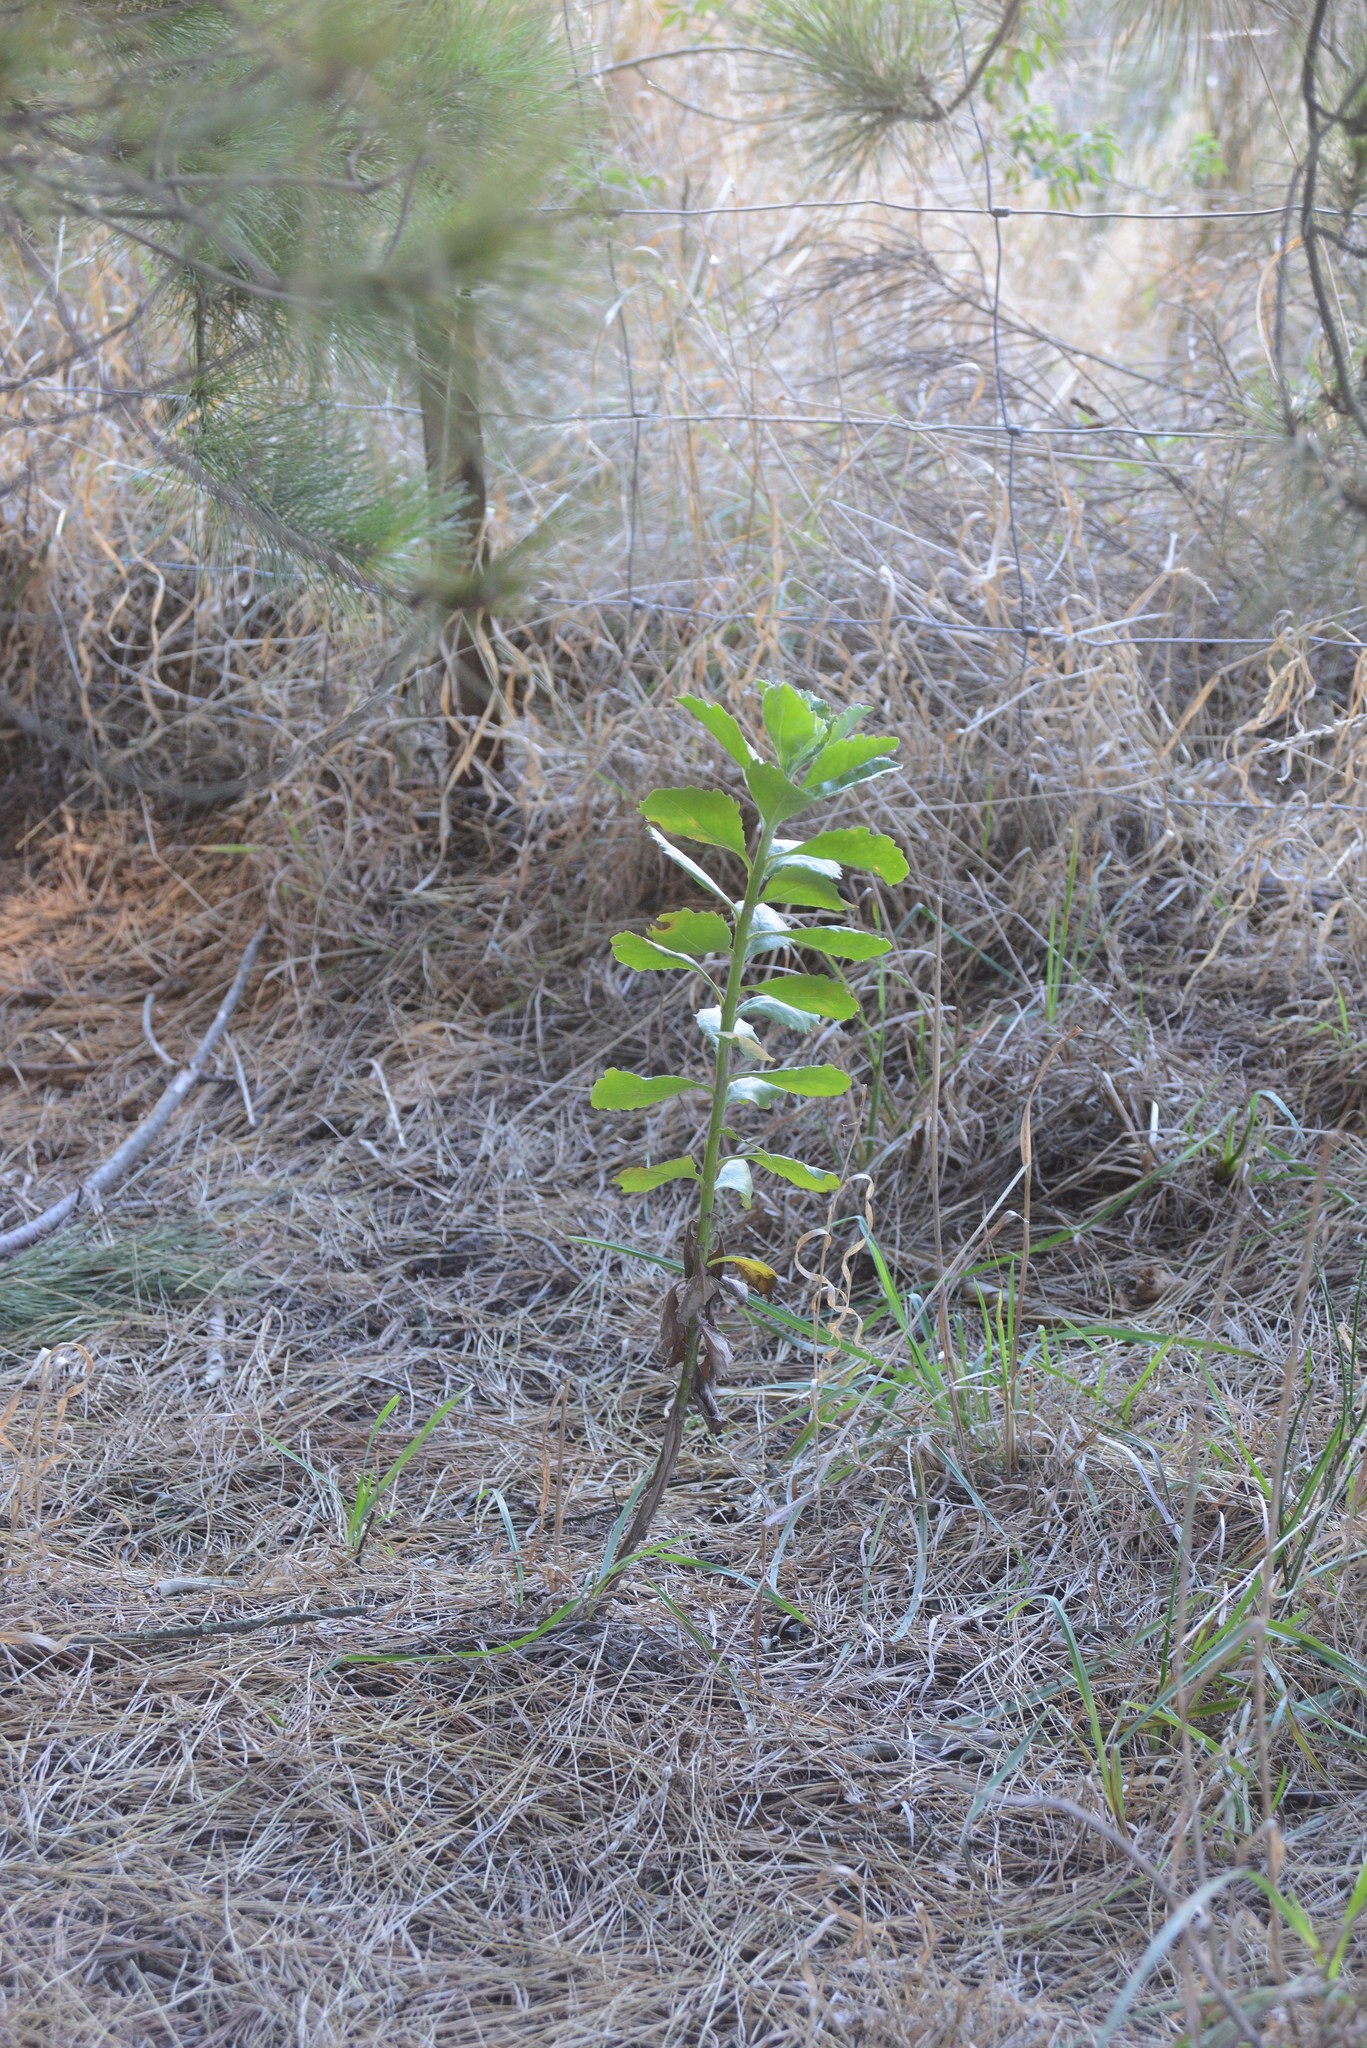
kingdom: Plantae
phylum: Tracheophyta
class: Magnoliopsida
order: Asterales
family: Asteraceae
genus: Osteospermum
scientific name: Osteospermum moniliferum
